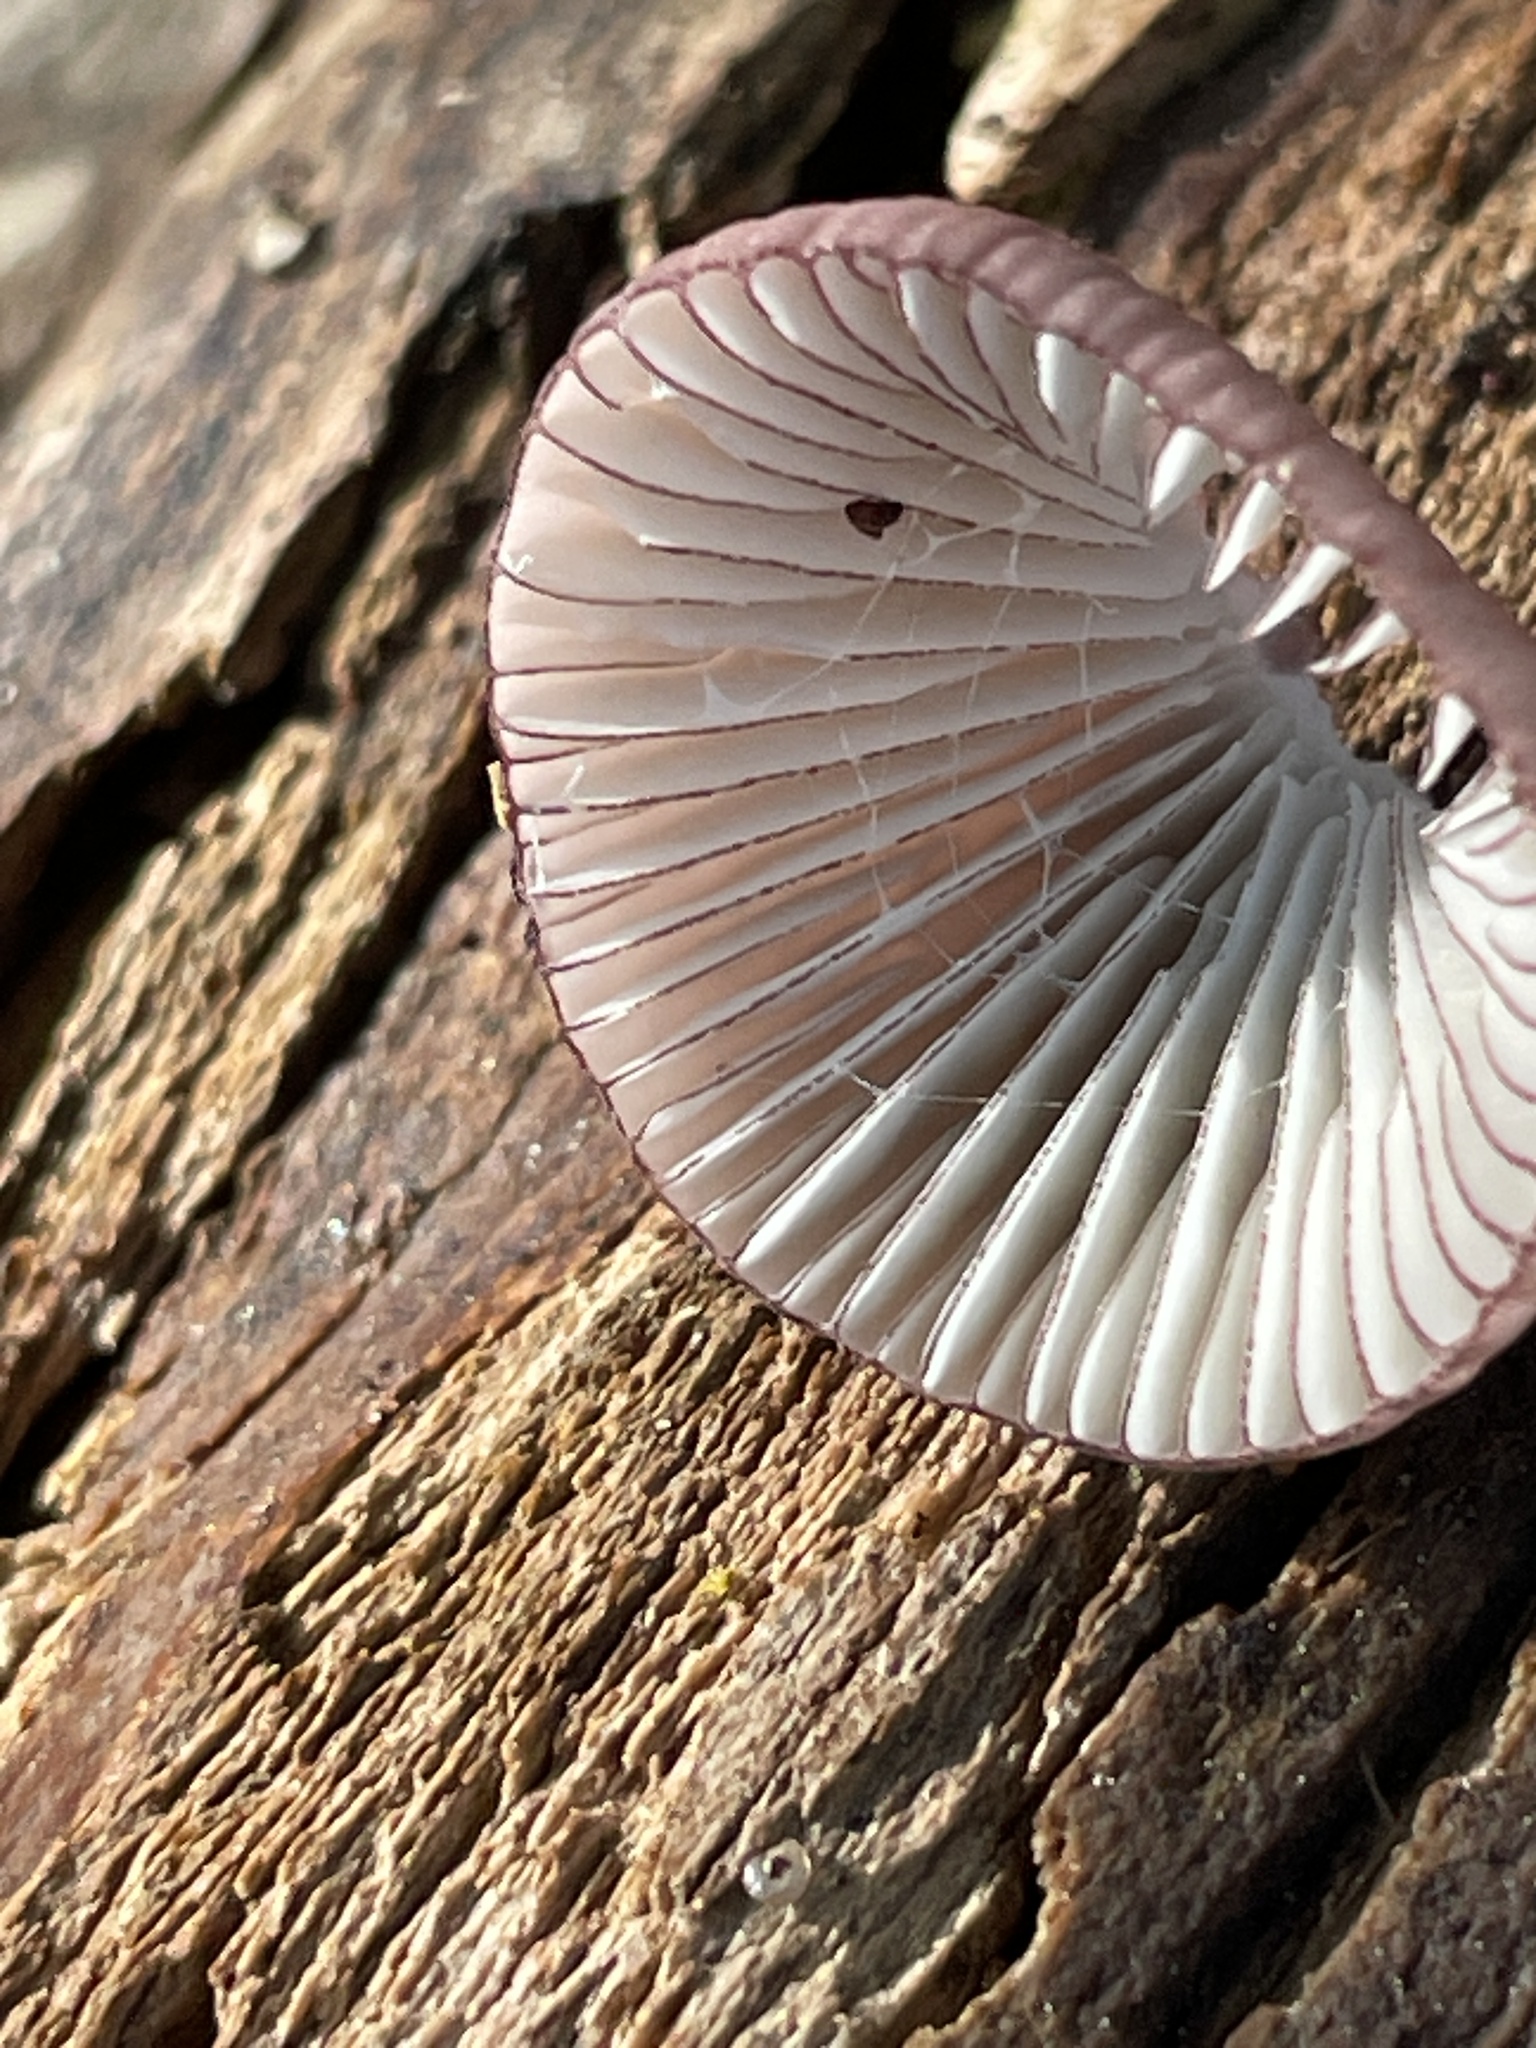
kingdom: Fungi
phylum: Basidiomycota
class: Agaricomycetes
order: Agaricales
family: Mycenaceae
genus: Mycena
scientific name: Mycena purpureofusca
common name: Purple edge bonnet
